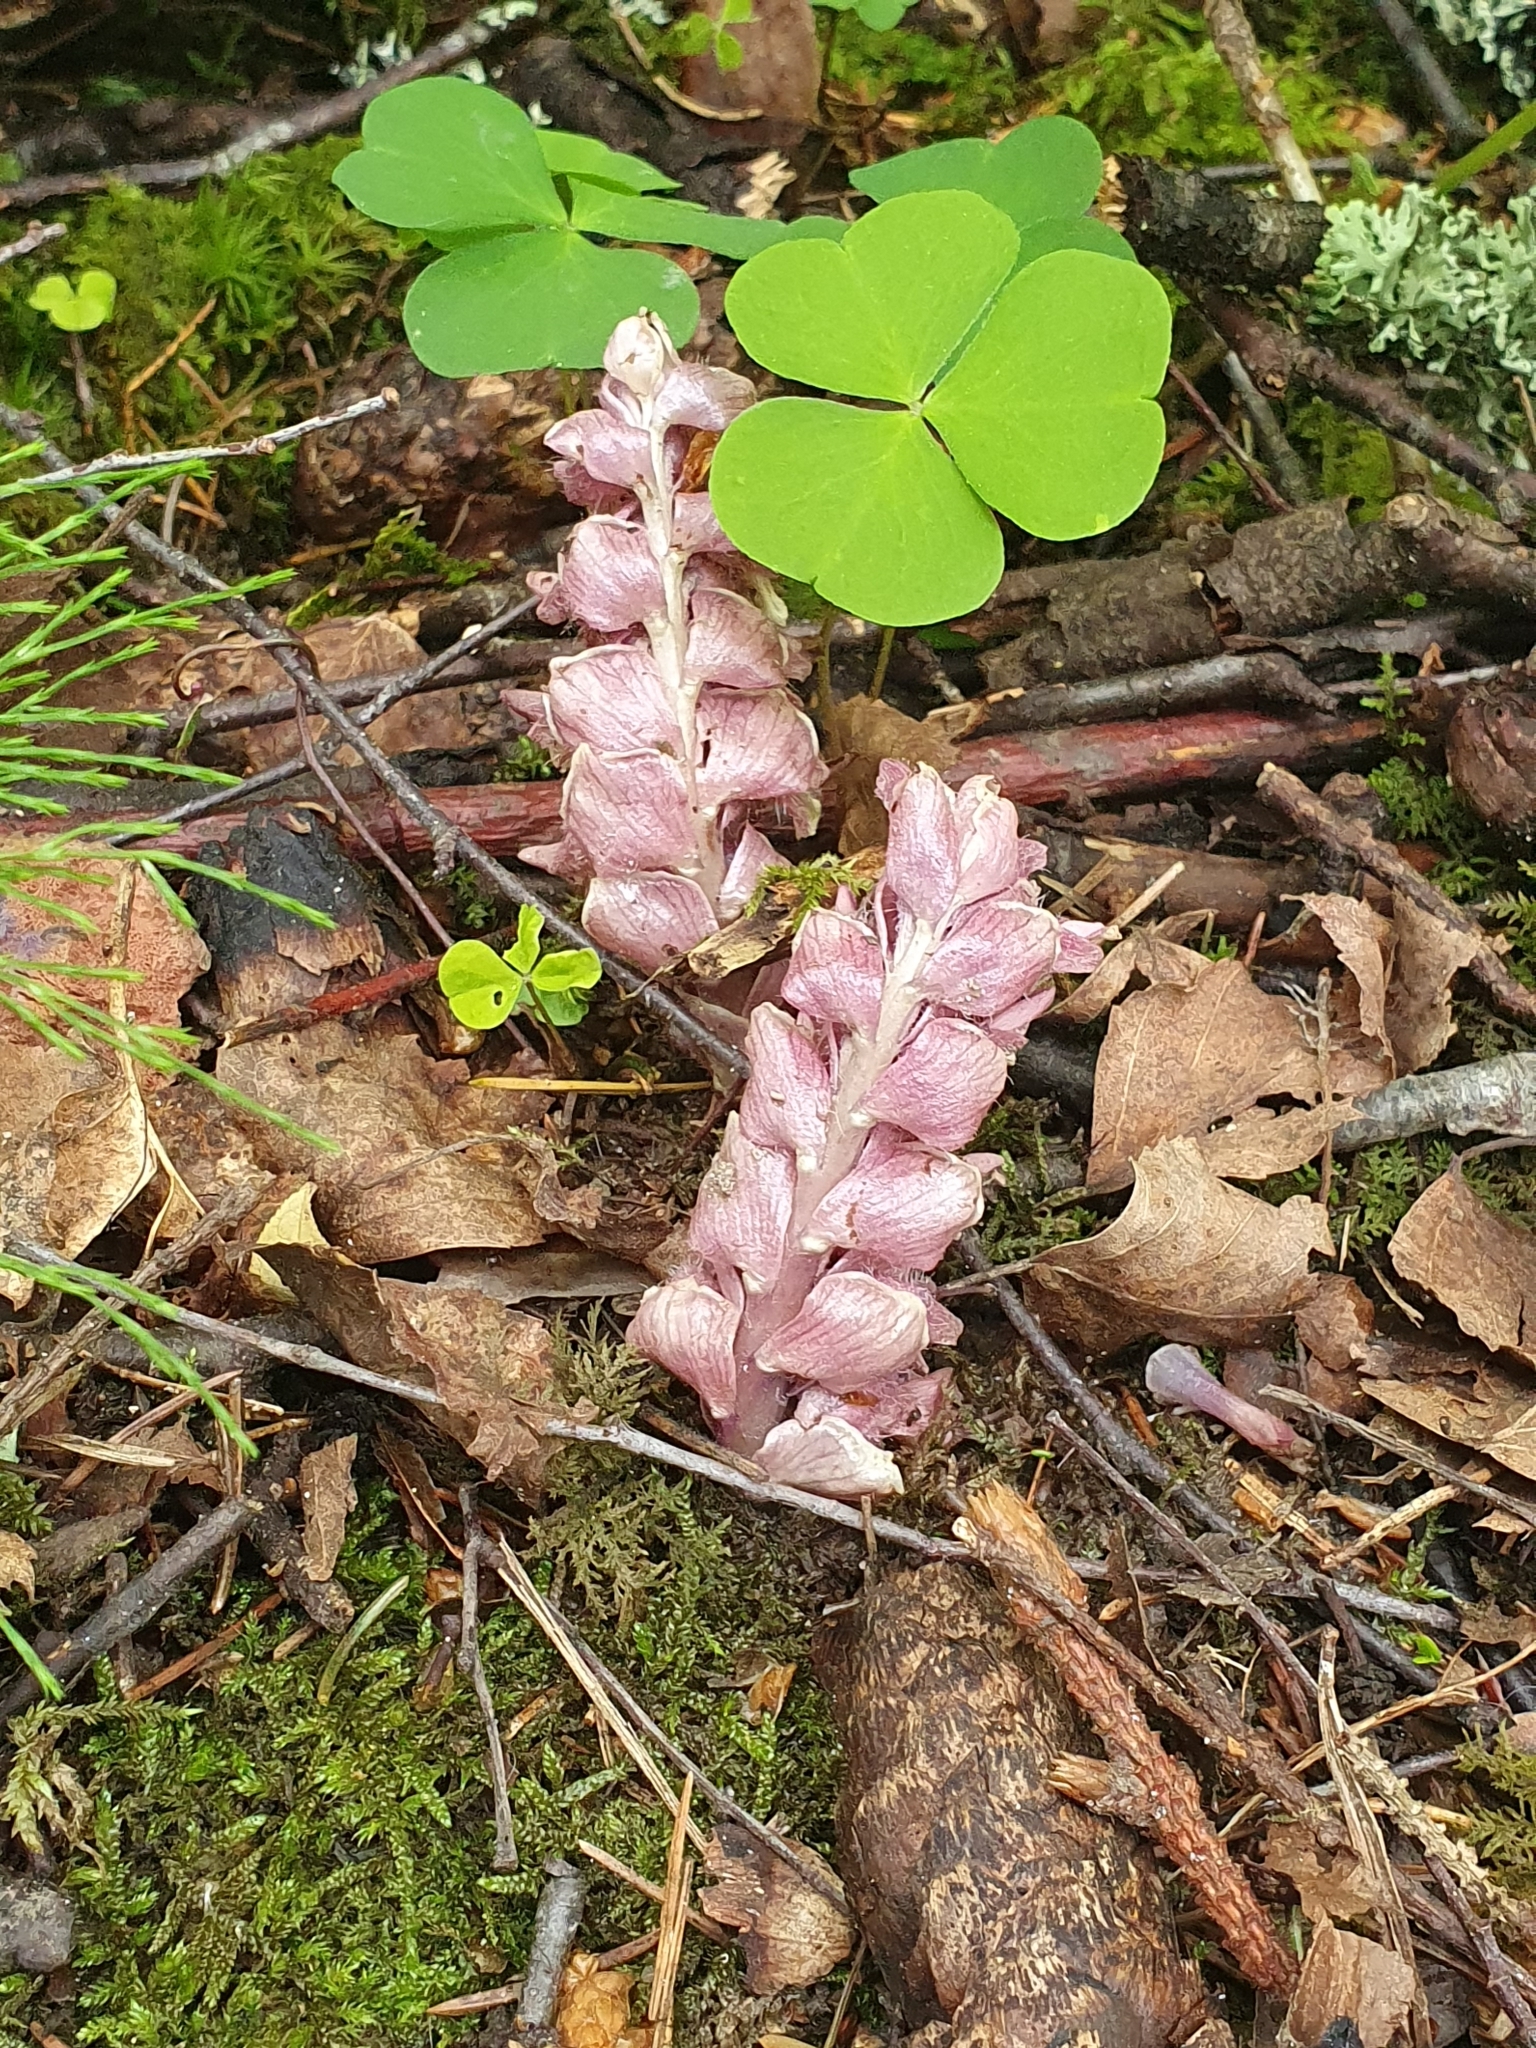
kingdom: Plantae
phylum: Tracheophyta
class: Magnoliopsida
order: Lamiales
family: Orobanchaceae
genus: Lathraea
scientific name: Lathraea squamaria
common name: Toothwort
